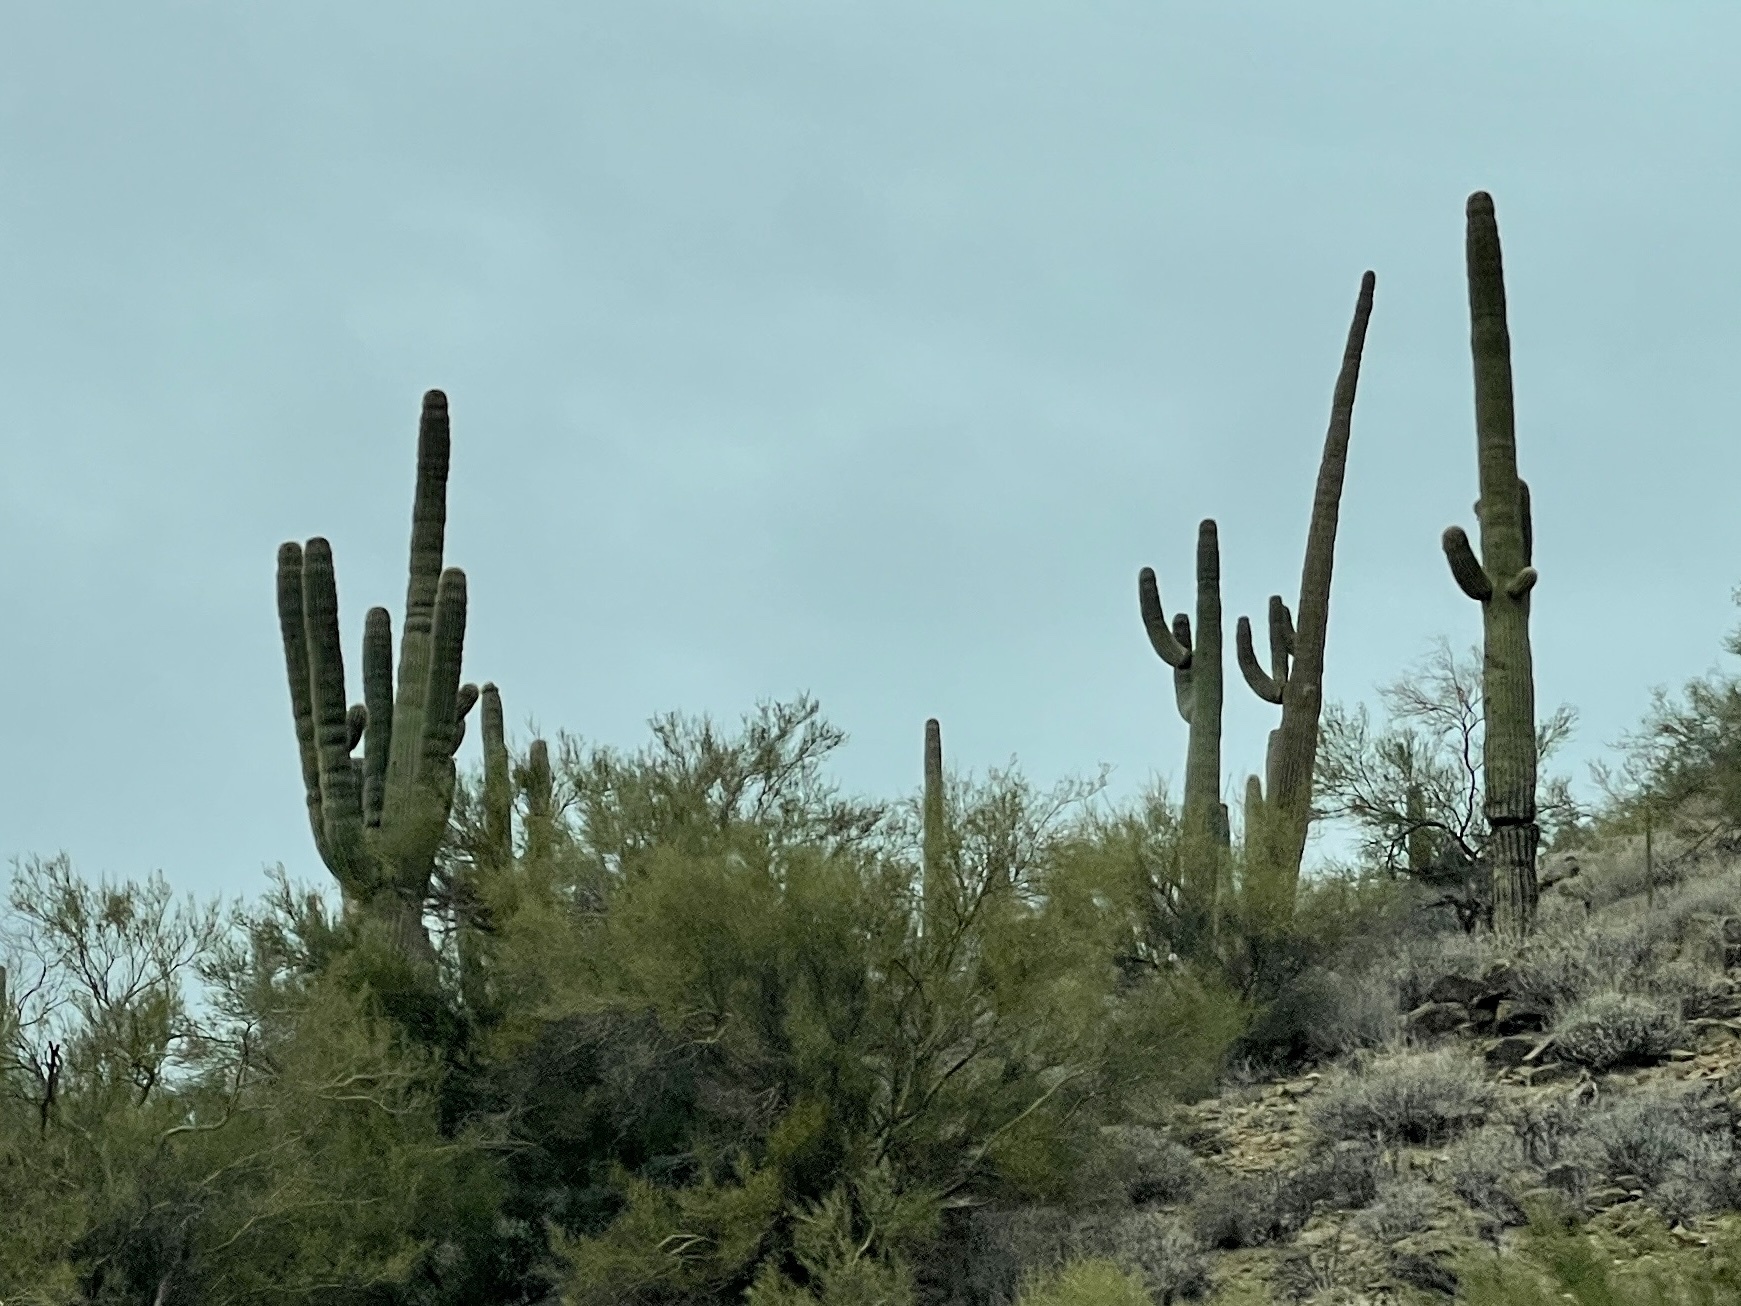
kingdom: Plantae
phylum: Tracheophyta
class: Magnoliopsida
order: Caryophyllales
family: Cactaceae
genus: Carnegiea
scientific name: Carnegiea gigantea
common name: Saguaro
